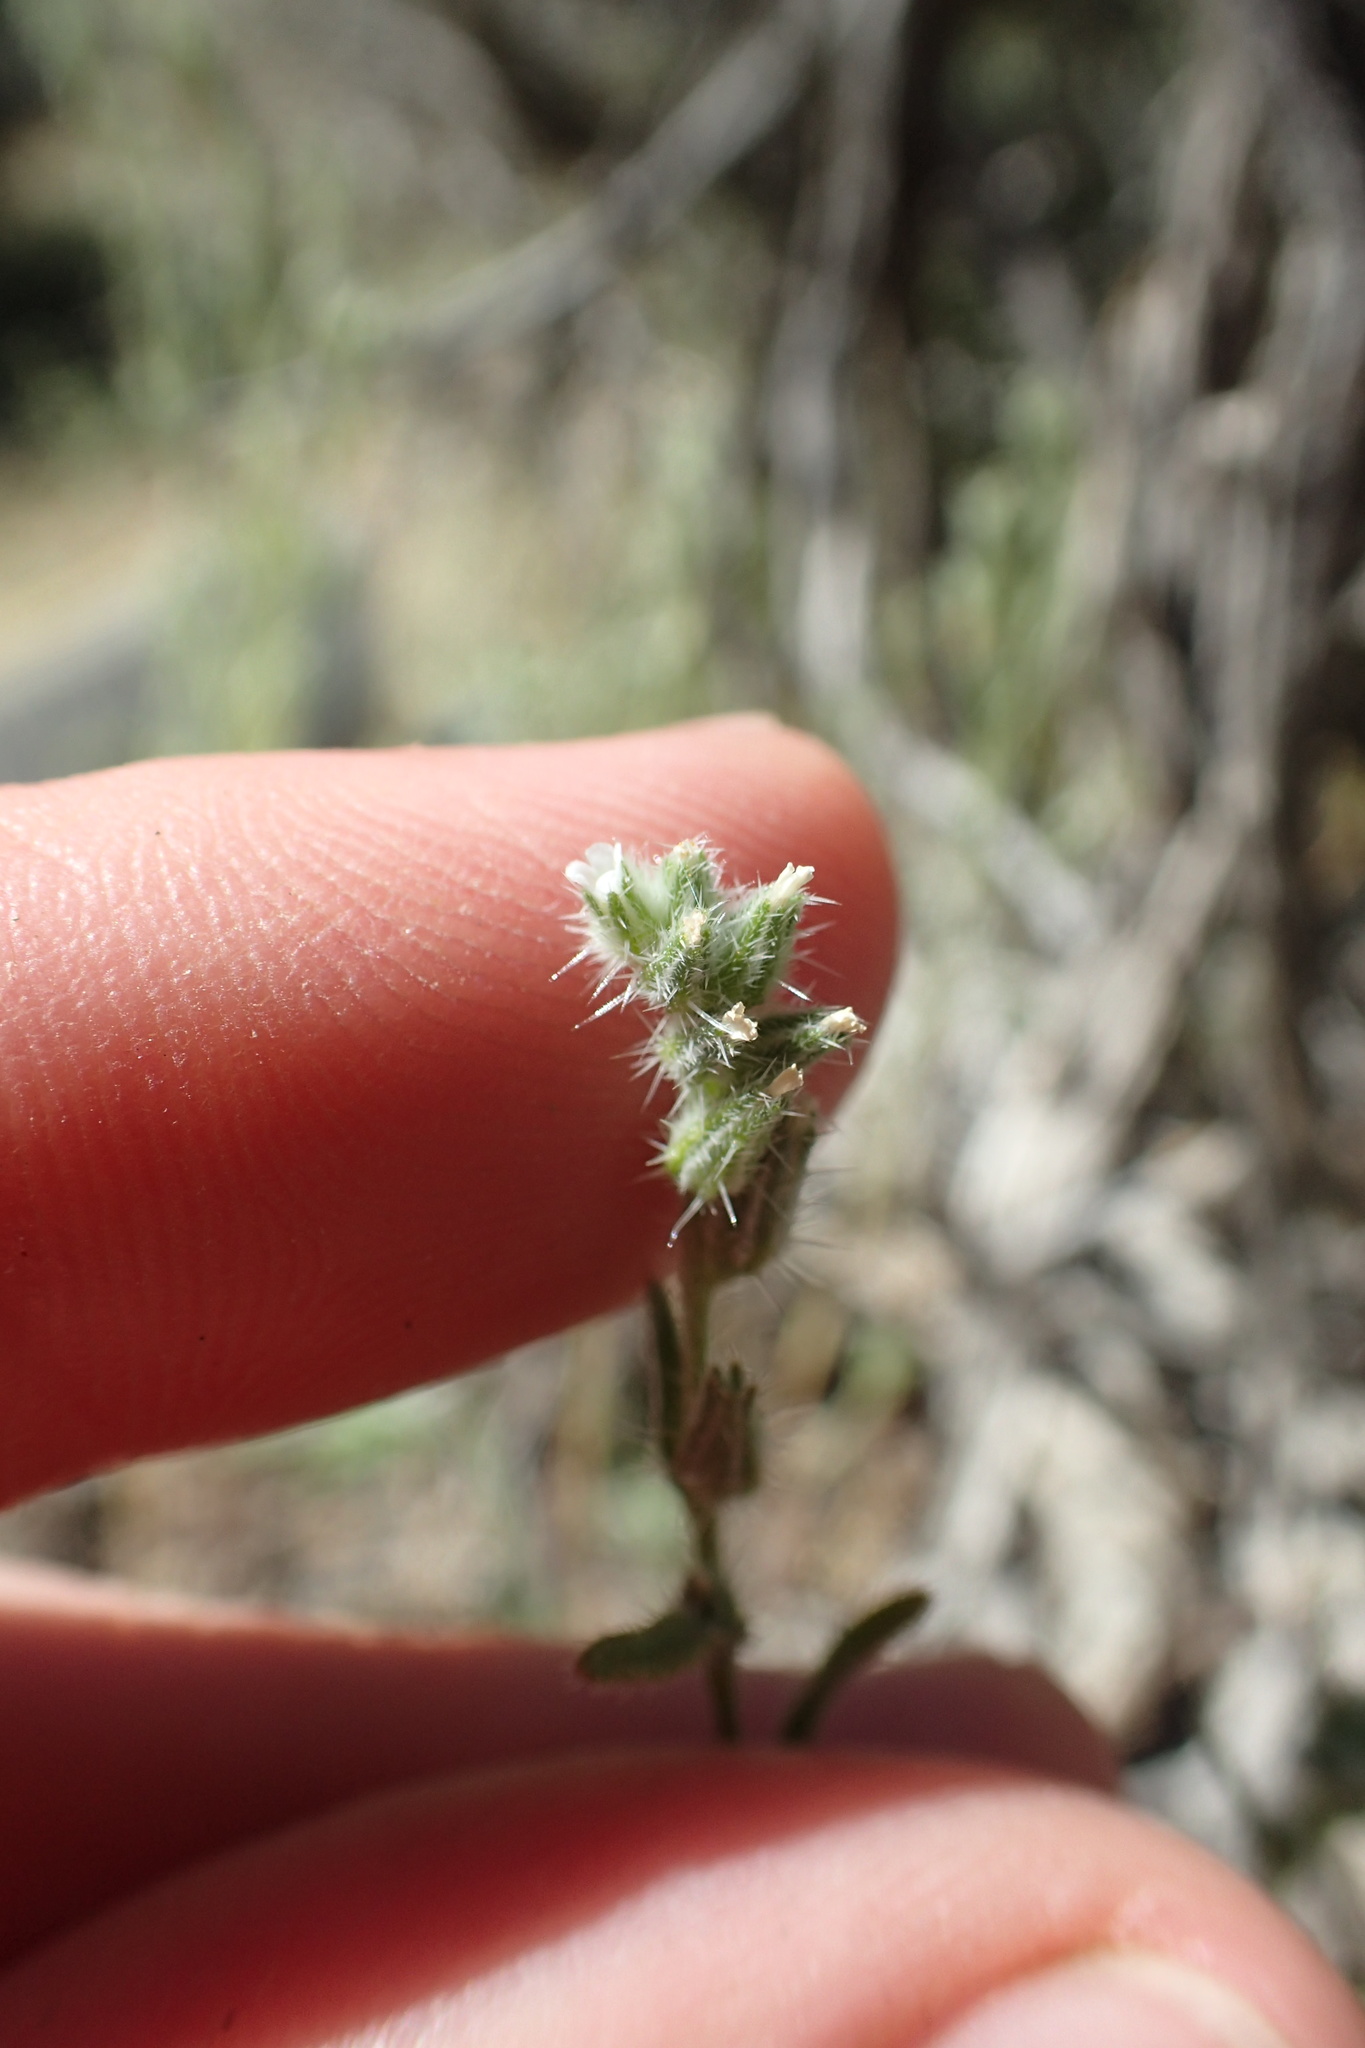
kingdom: Plantae
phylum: Tracheophyta
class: Magnoliopsida
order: Boraginales
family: Boraginaceae
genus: Cryptantha
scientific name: Cryptantha scoparia
